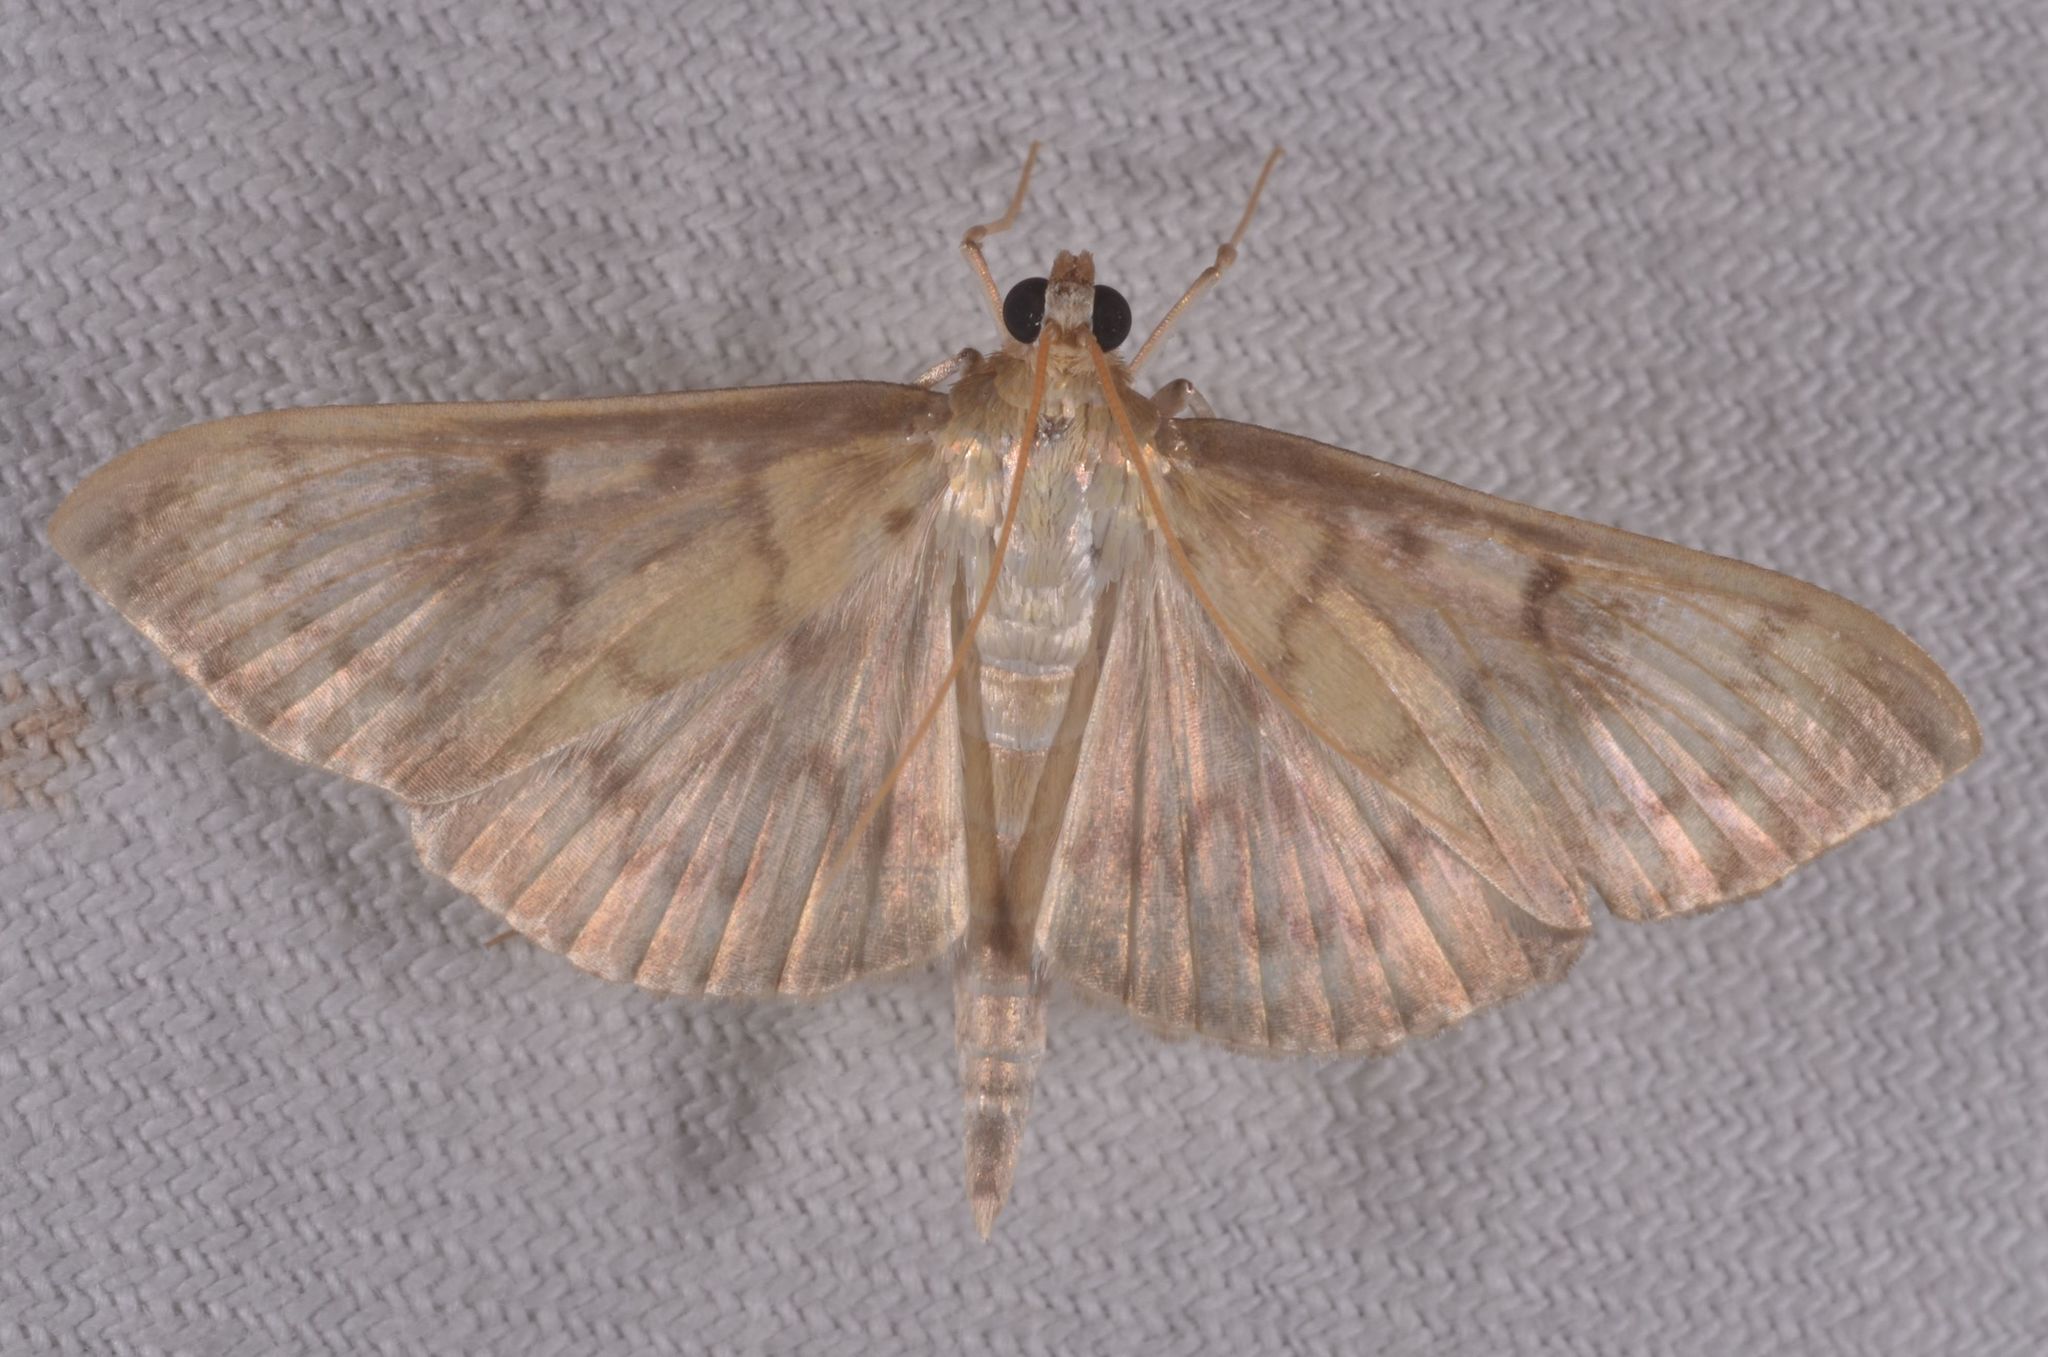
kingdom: Animalia
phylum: Arthropoda
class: Insecta
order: Lepidoptera
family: Crambidae
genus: Patania
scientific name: Patania ruralis
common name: Mother of pearl
